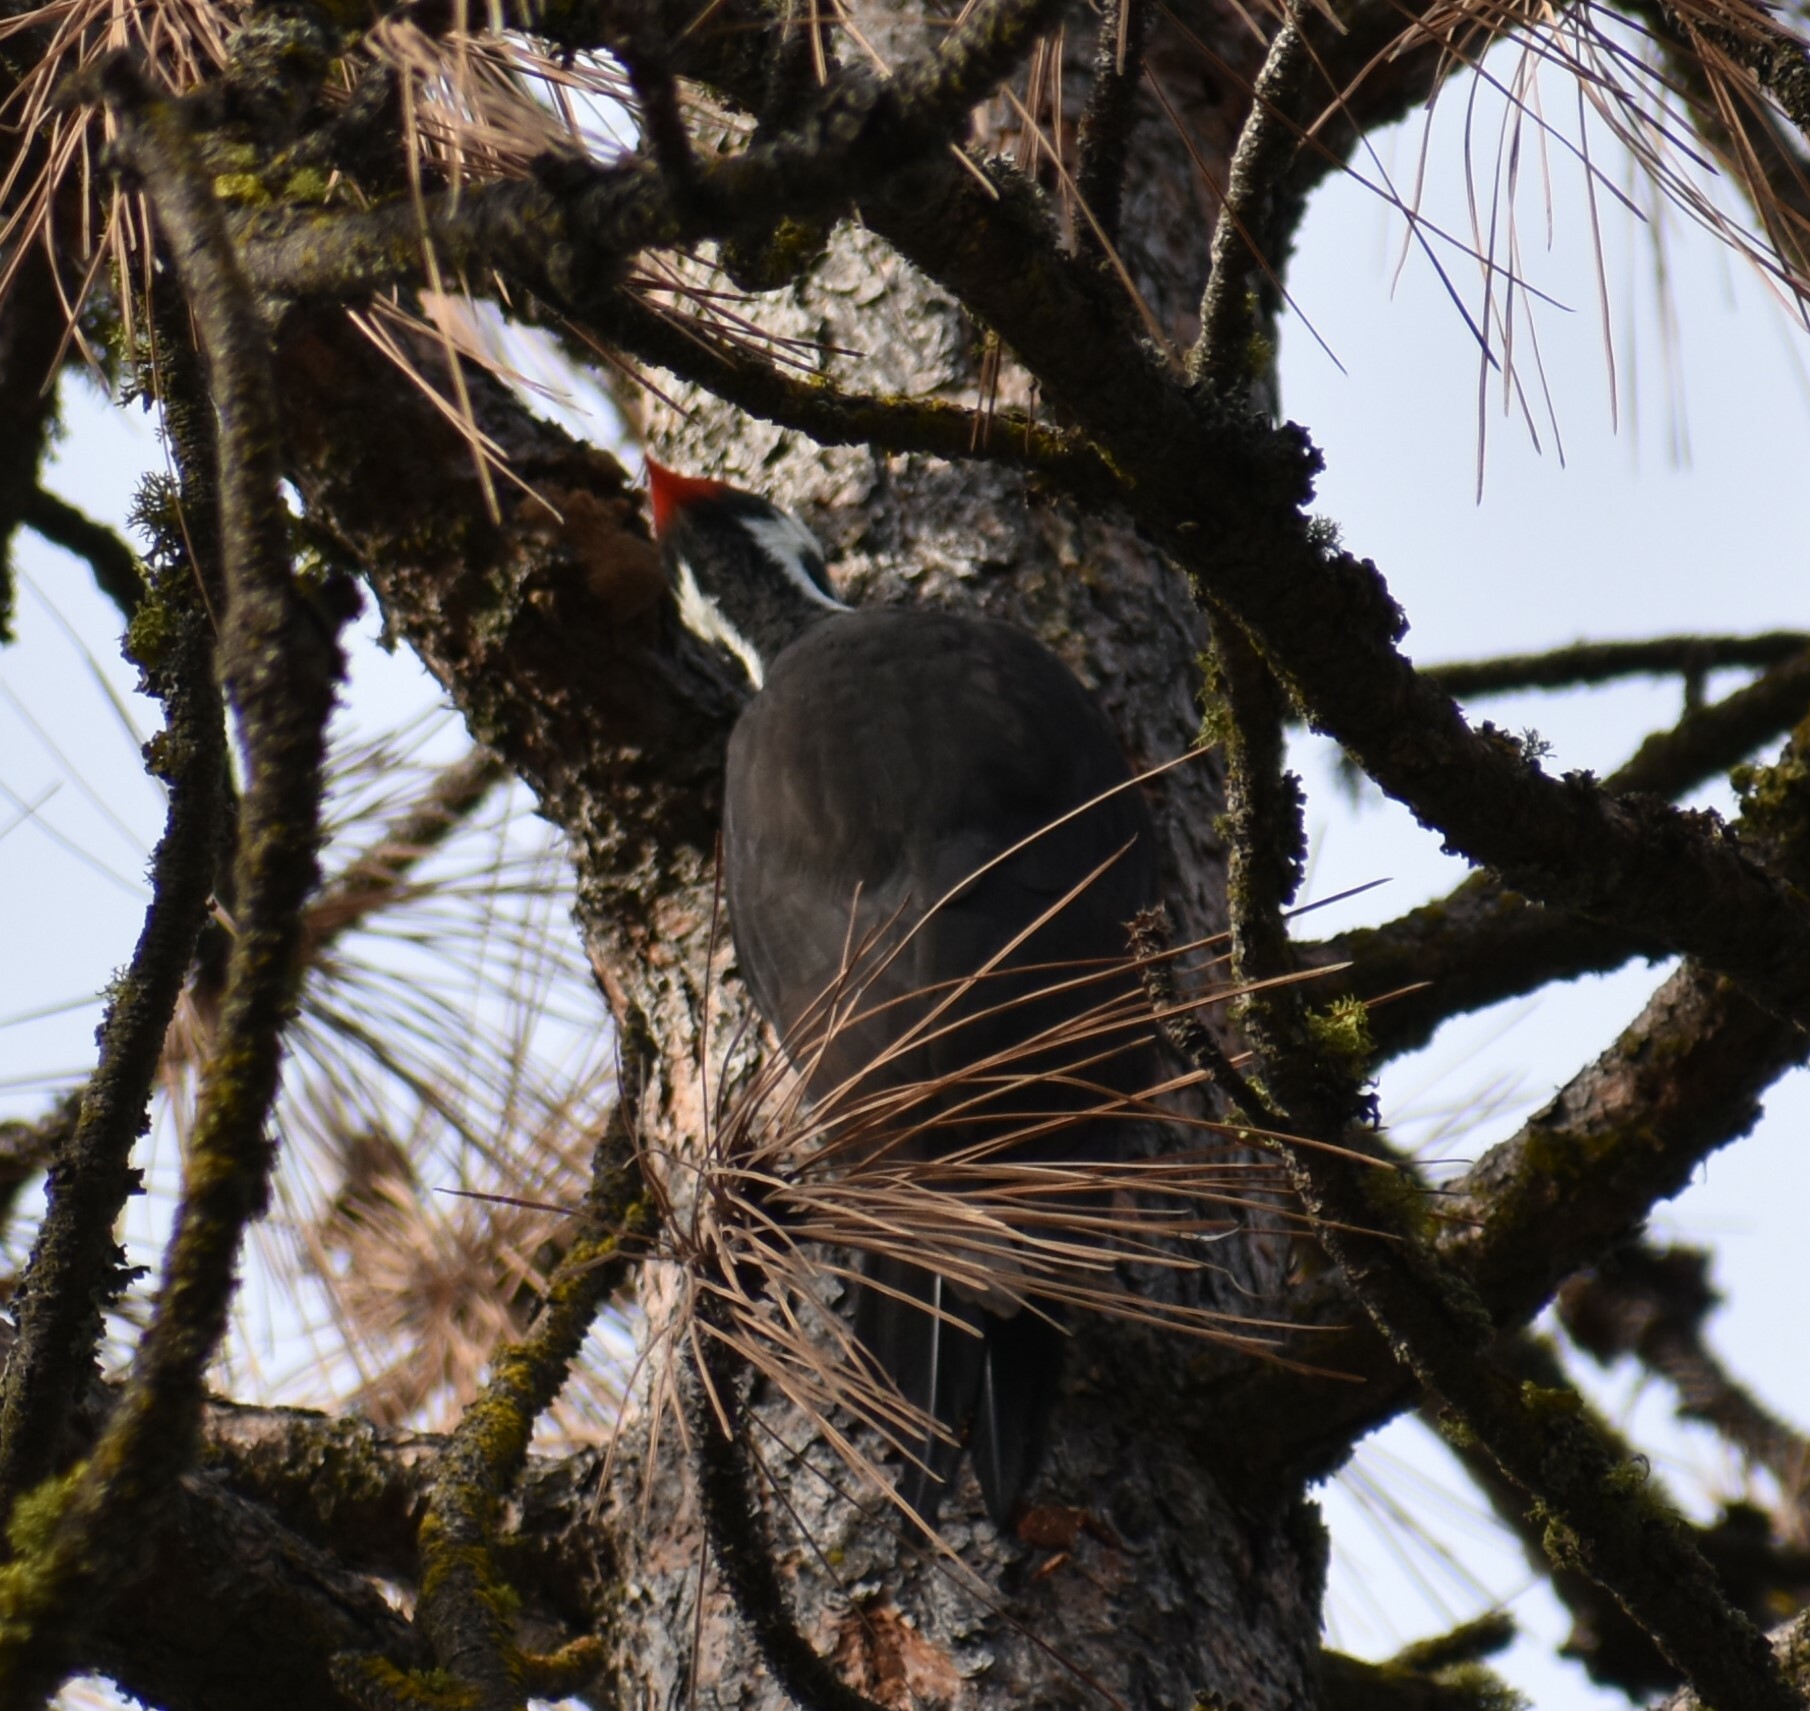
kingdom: Animalia
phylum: Chordata
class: Aves
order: Piciformes
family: Picidae
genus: Dryocopus
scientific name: Dryocopus pileatus
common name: Pileated woodpecker
